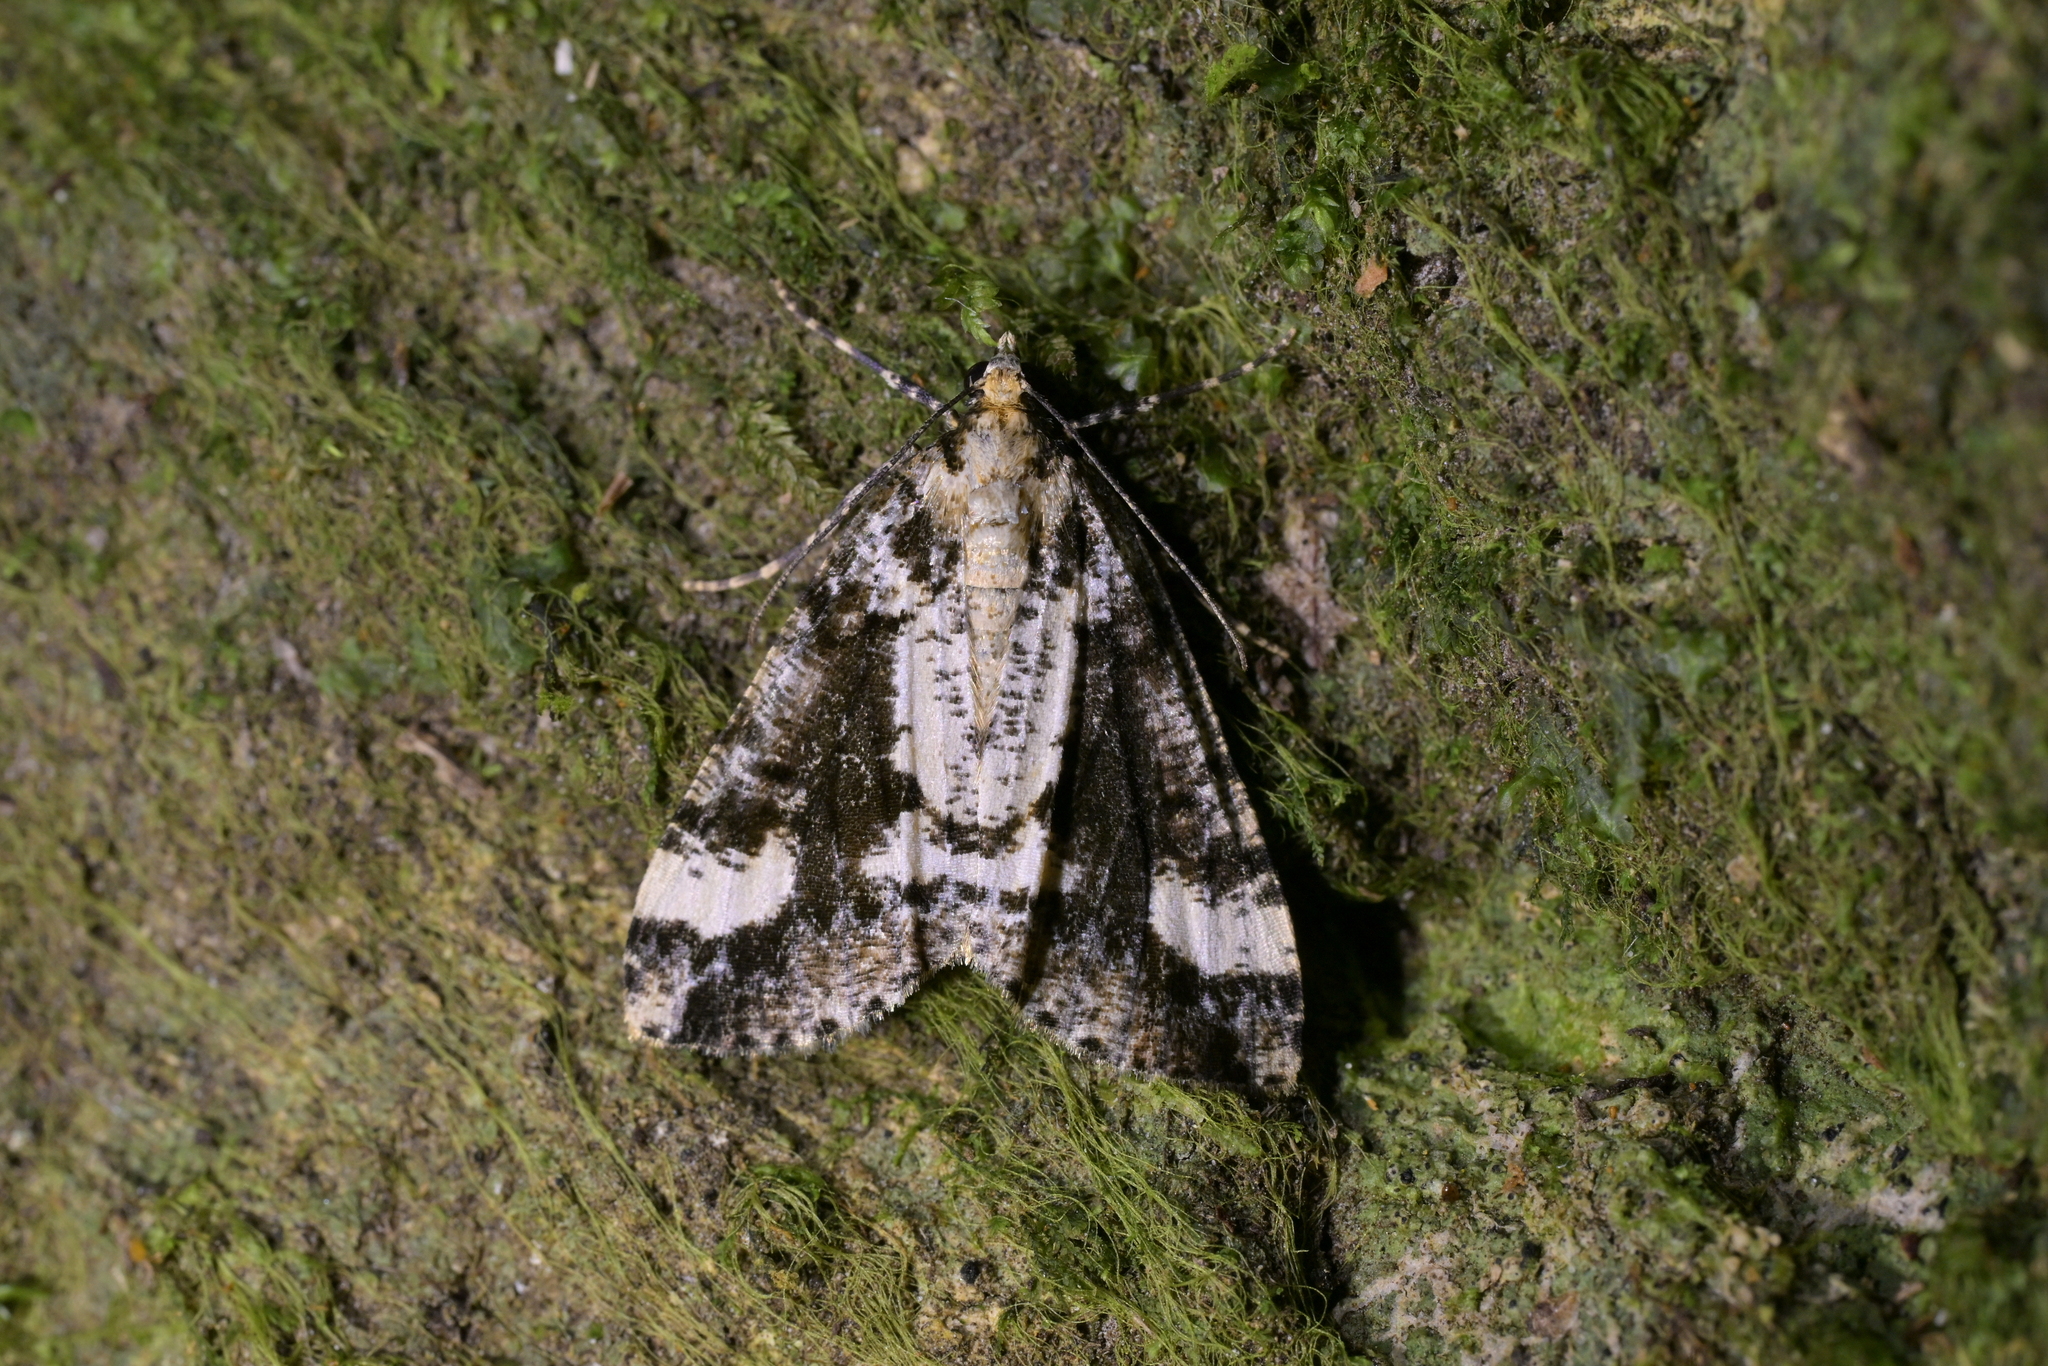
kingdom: Animalia
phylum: Arthropoda
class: Insecta
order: Lepidoptera
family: Geometridae
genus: Pseudocoremia
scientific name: Pseudocoremia leucelaea
